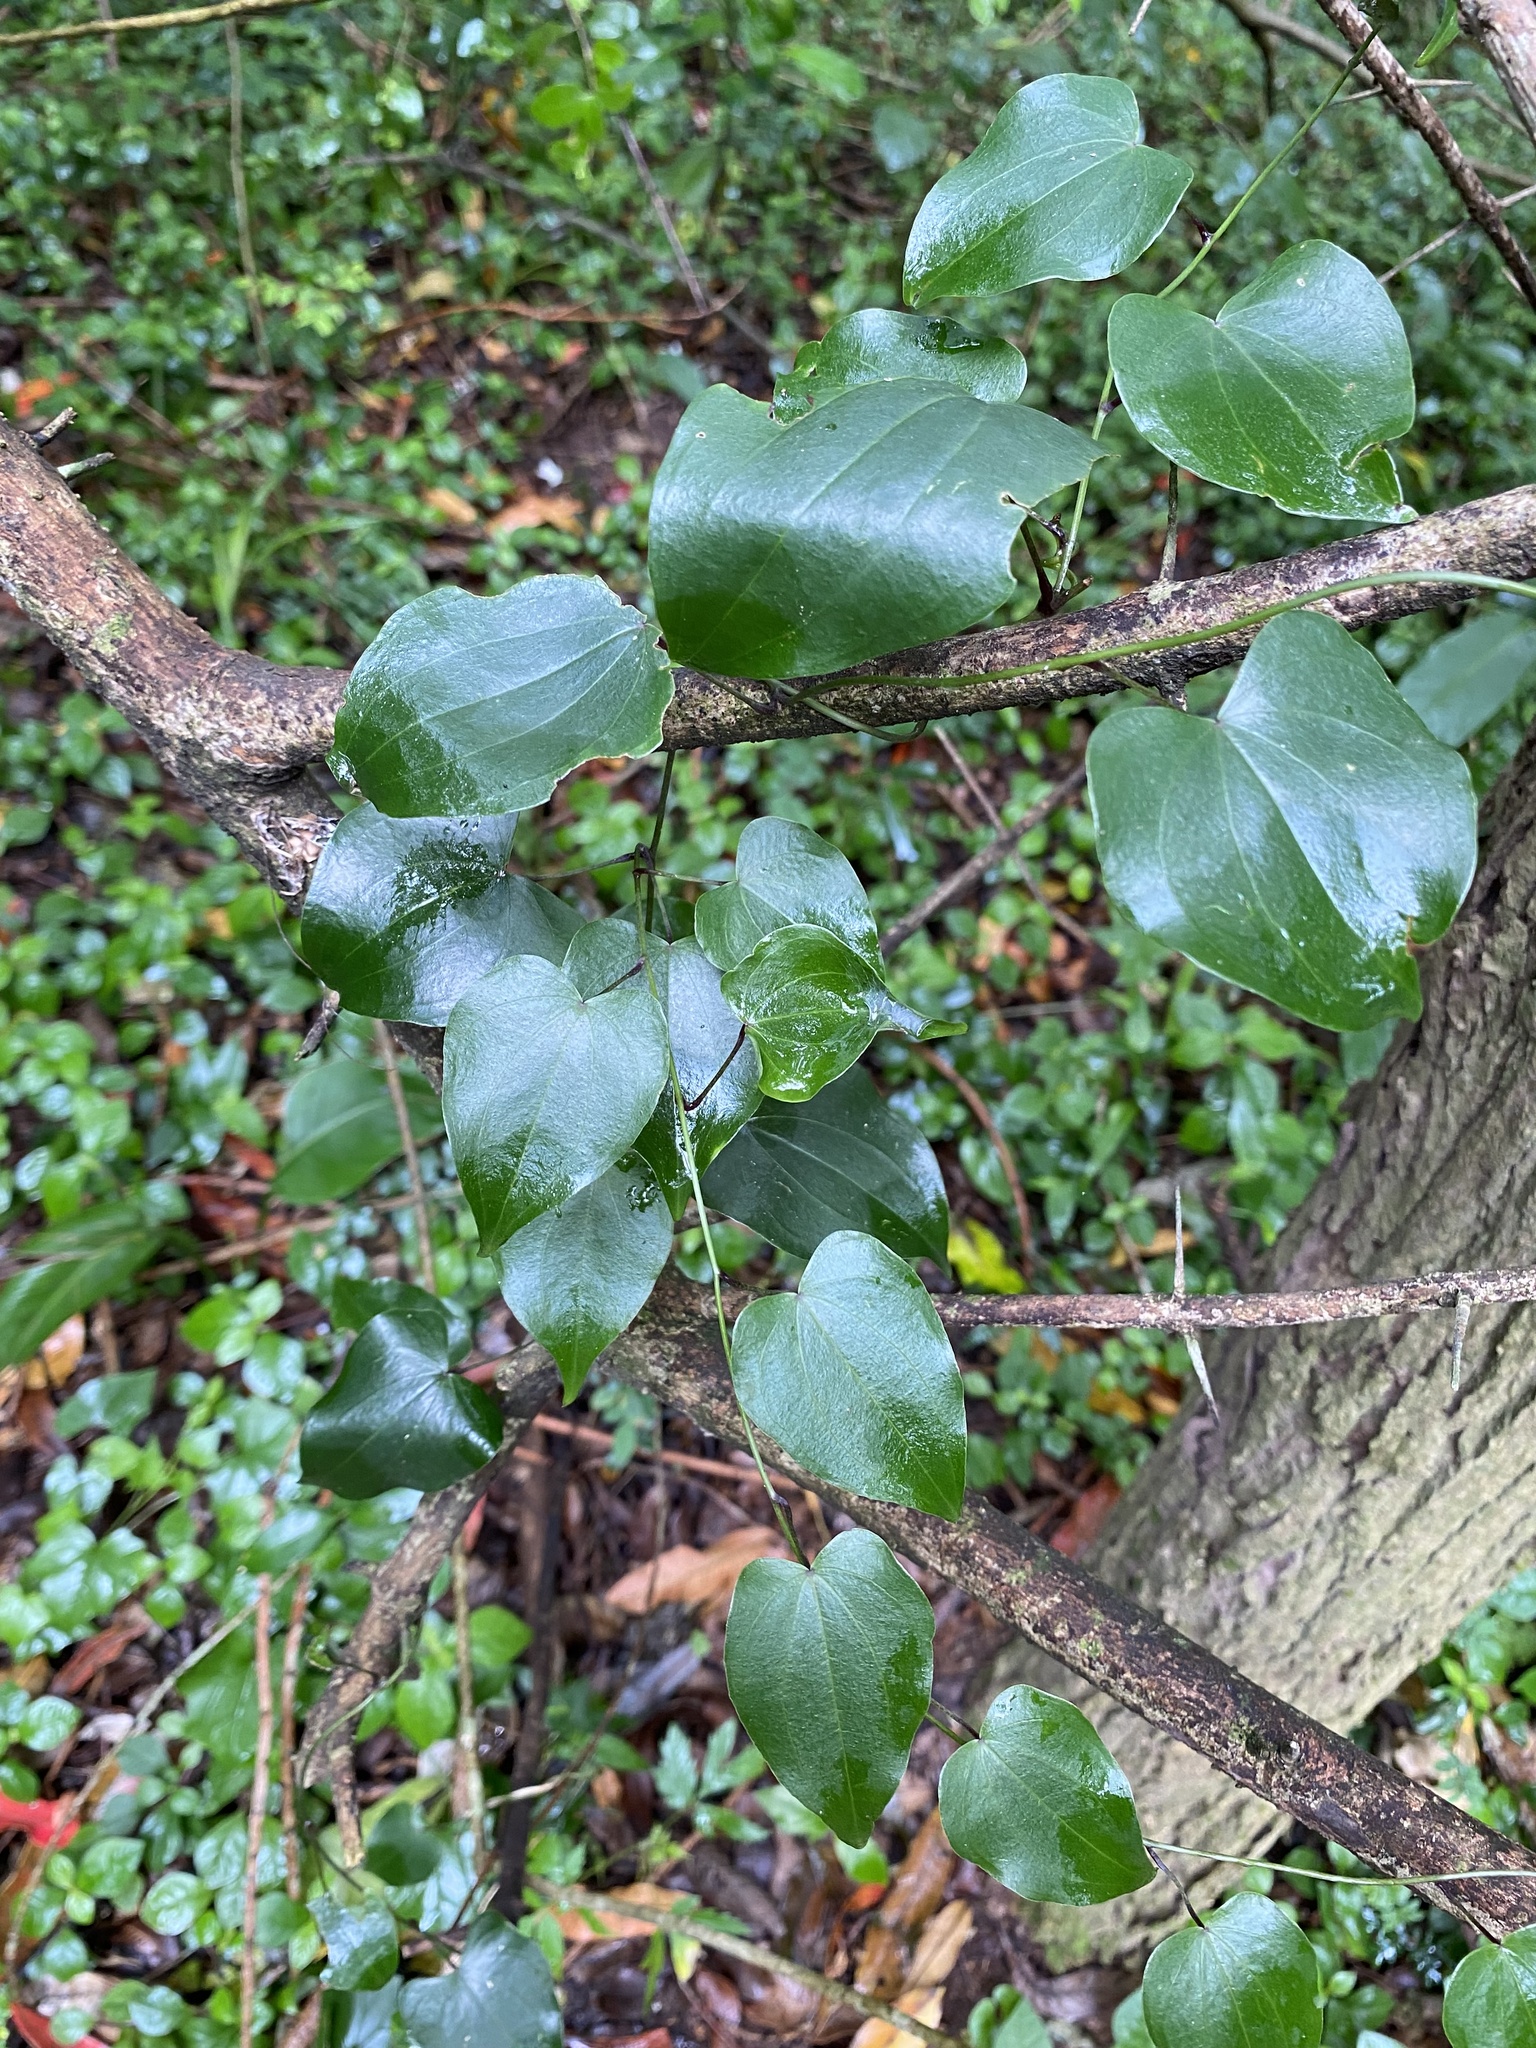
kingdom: Plantae
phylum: Tracheophyta
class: Liliopsida
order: Dioscoreales
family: Dioscoreaceae
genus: Dioscorea
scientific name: Dioscorea cotinifolia
